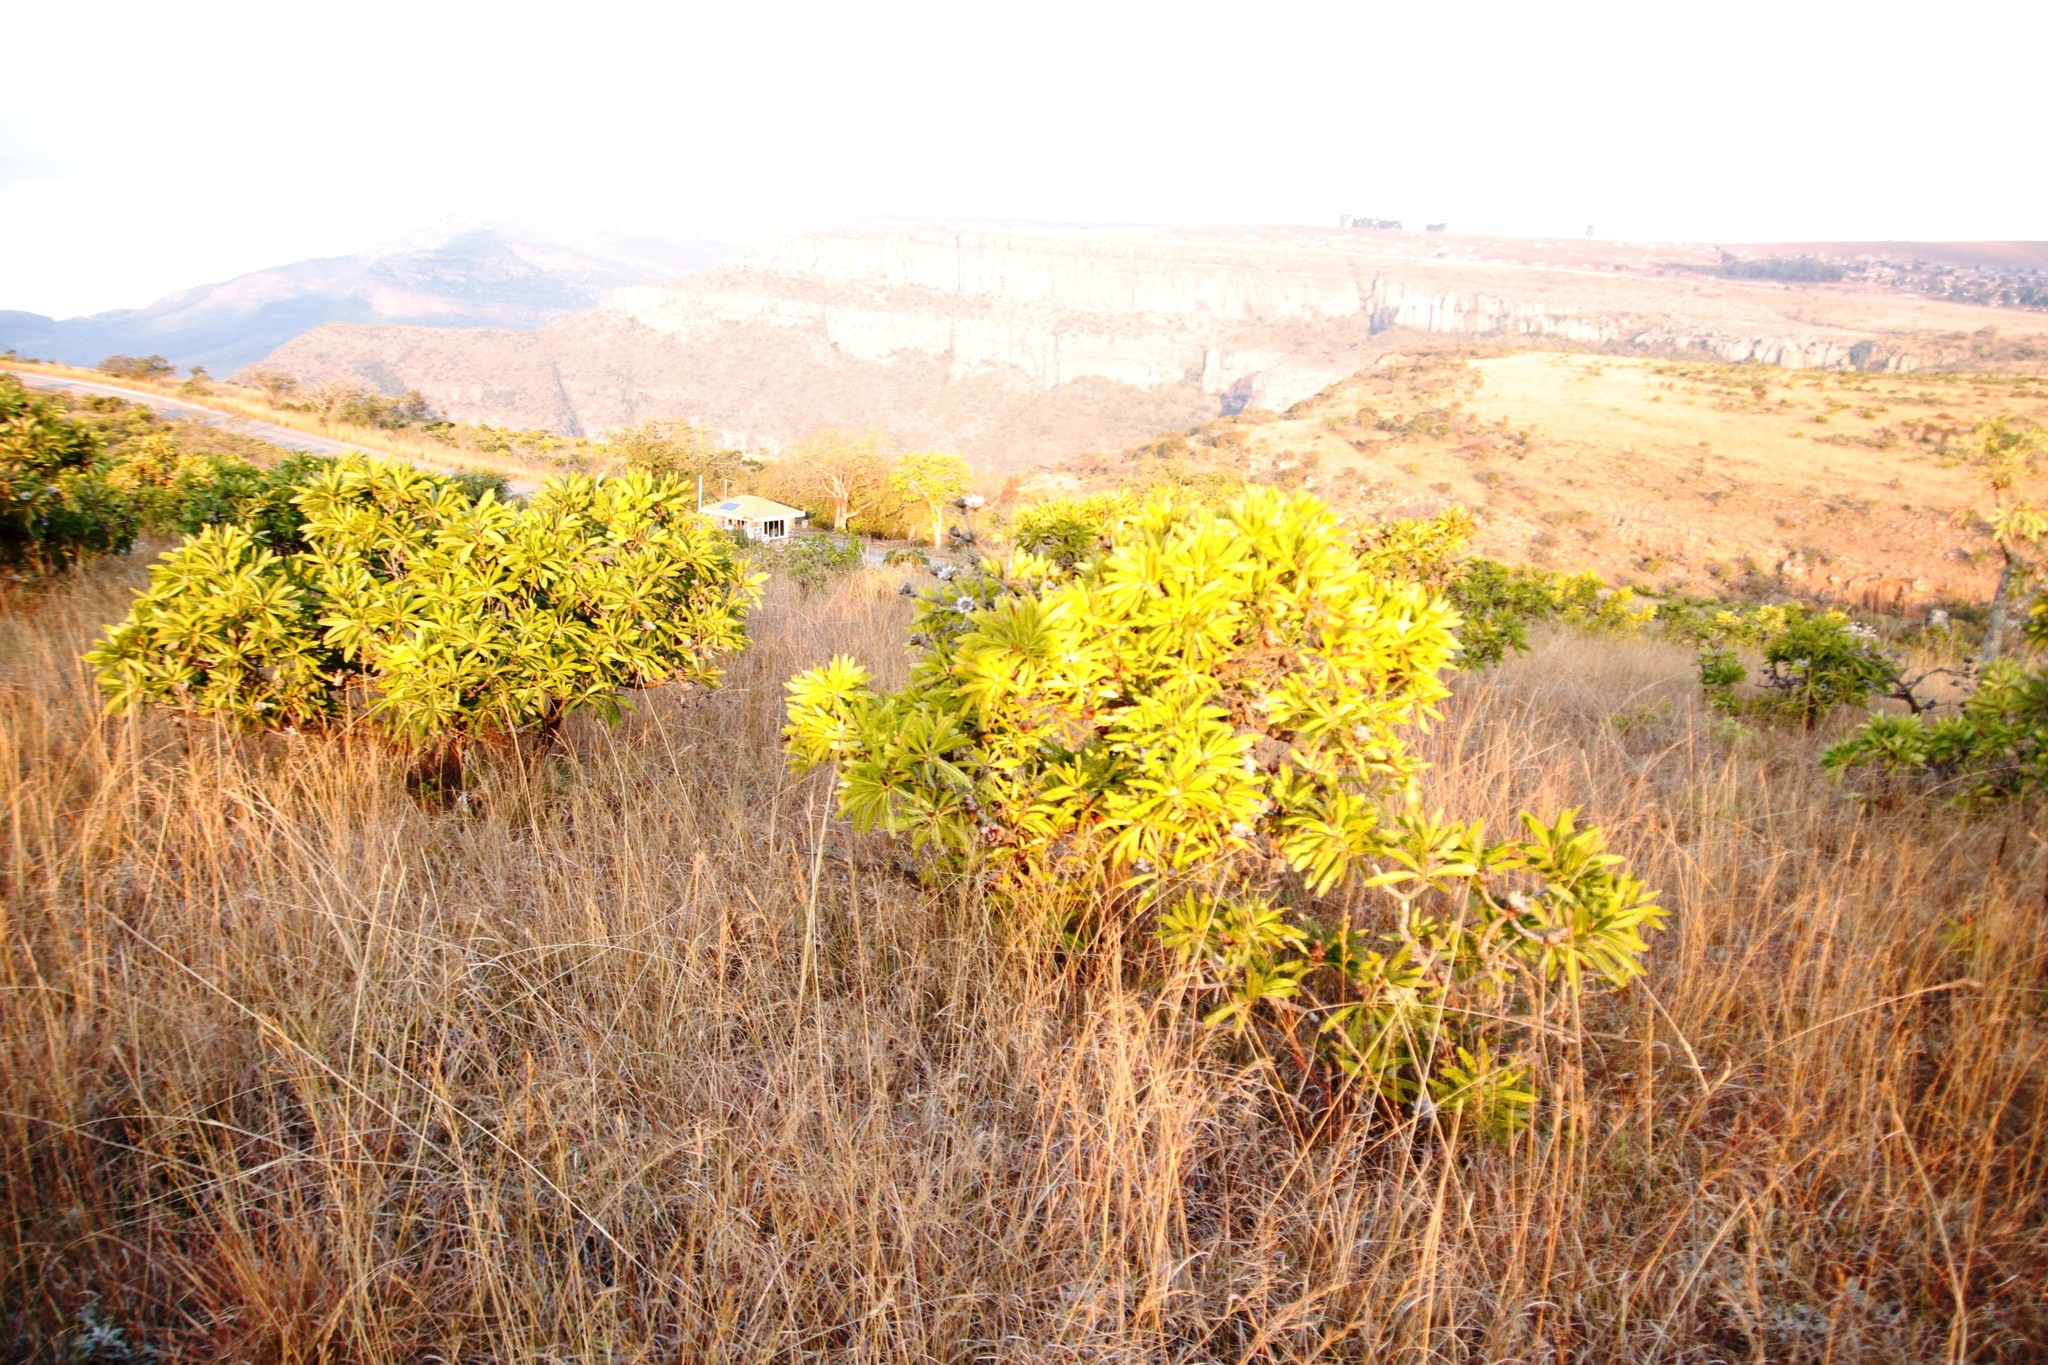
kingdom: Plantae
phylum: Tracheophyta
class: Magnoliopsida
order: Proteales
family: Proteaceae
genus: Protea
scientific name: Protea rubropilosa
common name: Escarpment sugarbush
